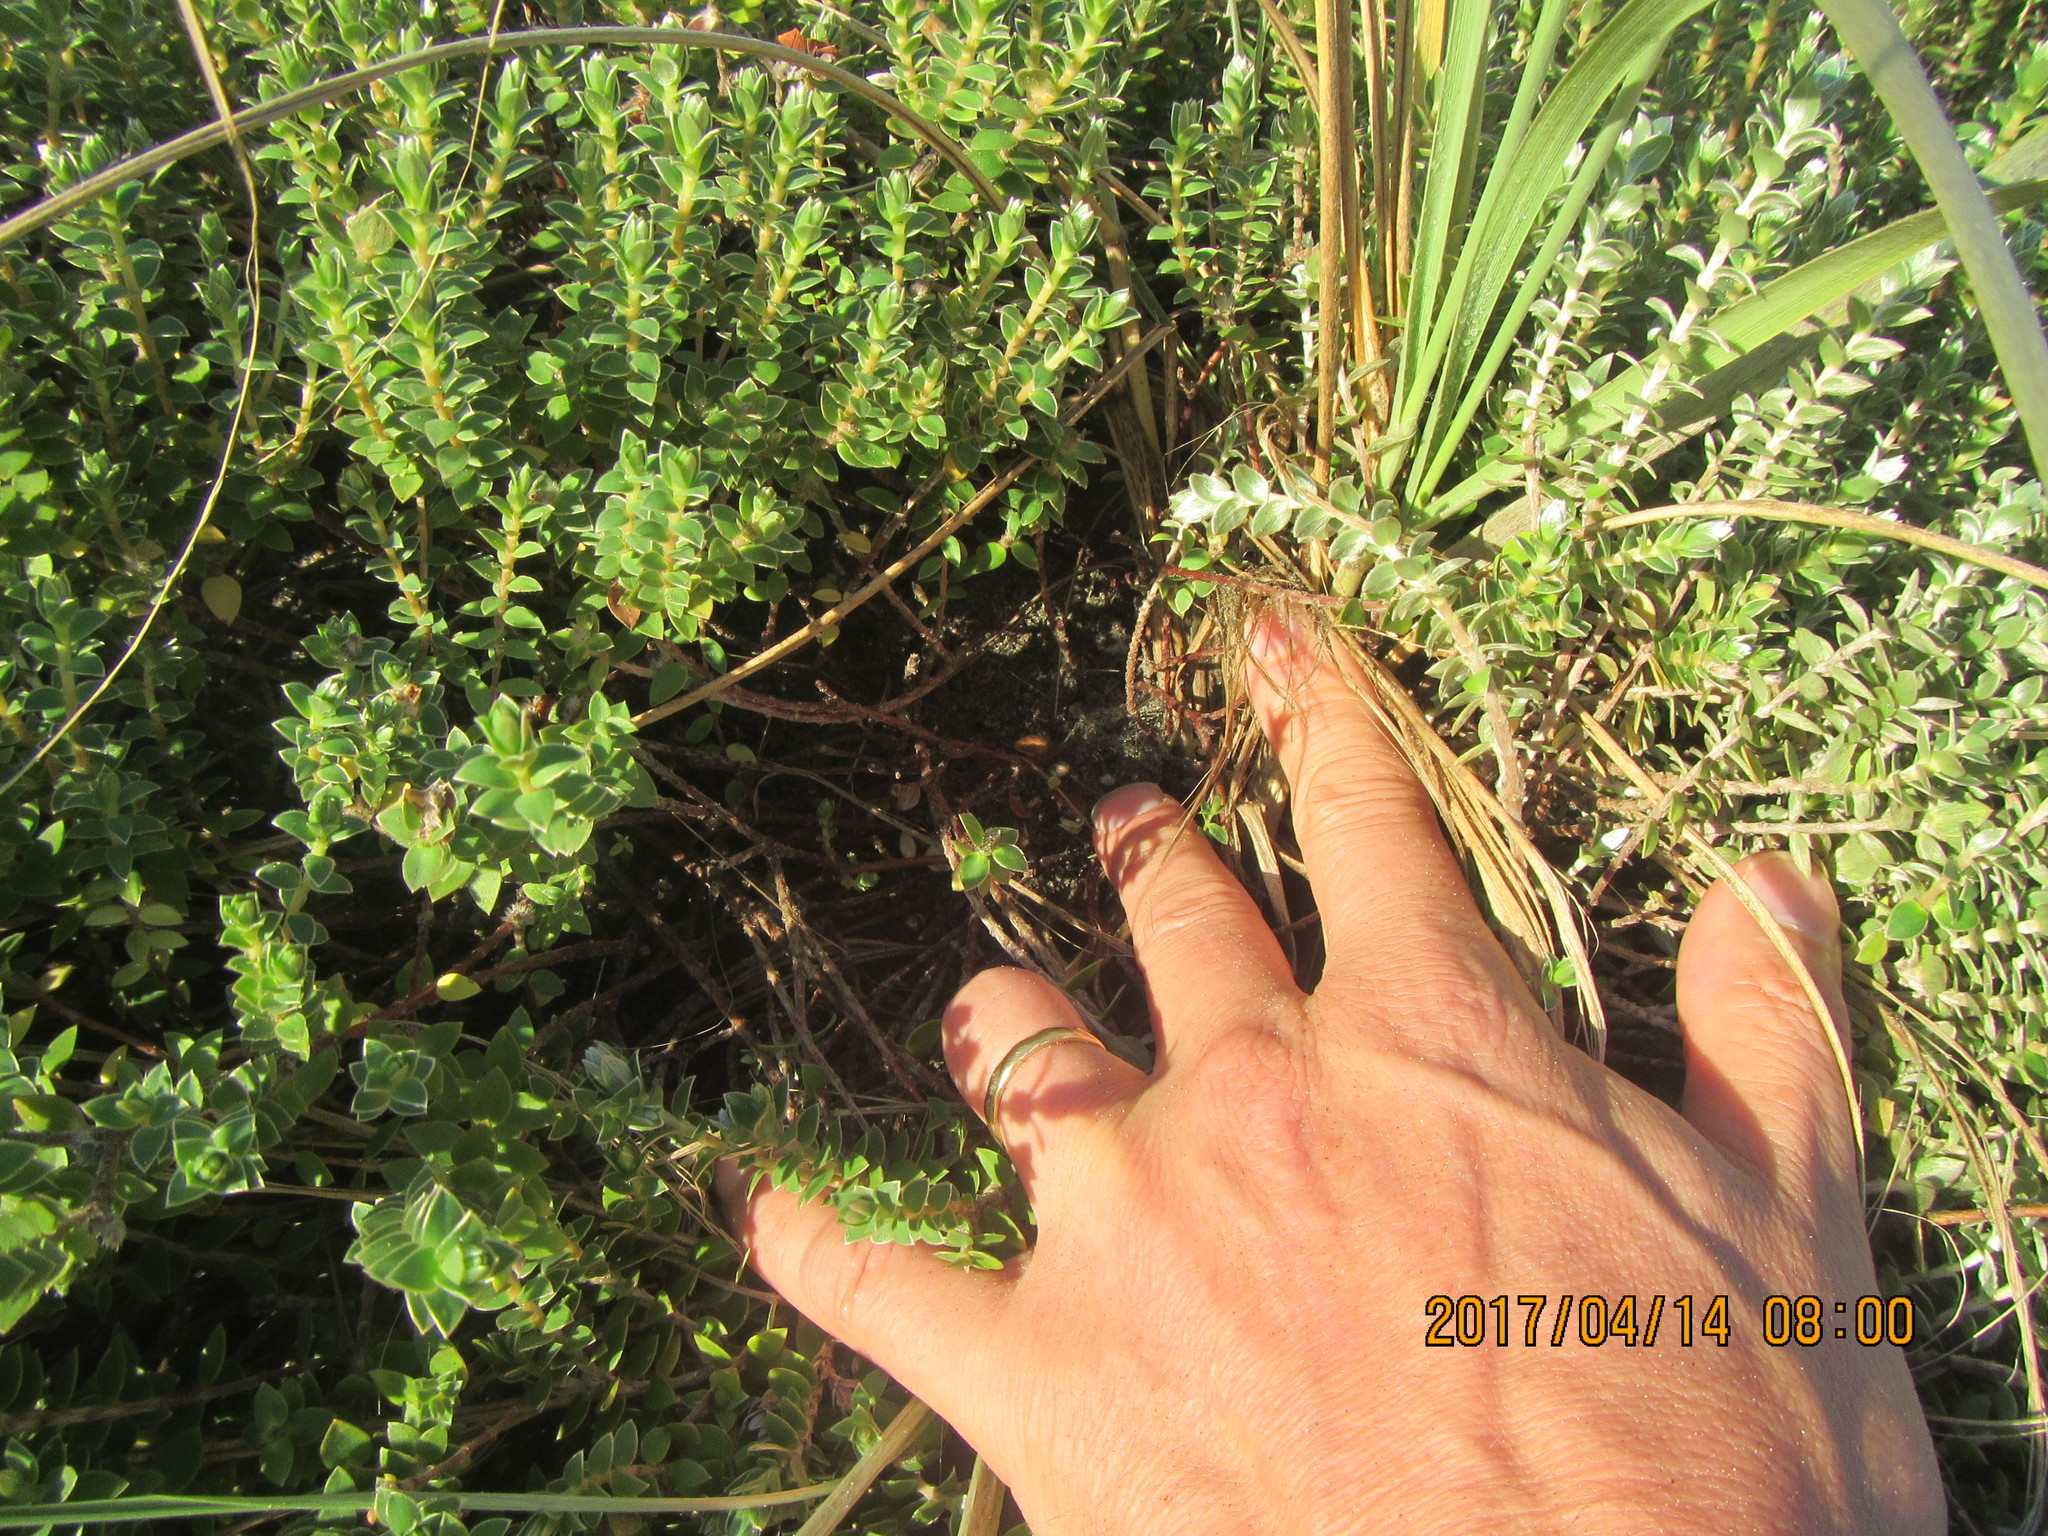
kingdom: Plantae
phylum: Tracheophyta
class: Magnoliopsida
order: Malvales
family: Thymelaeaceae
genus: Pimelea
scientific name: Pimelea villosa
